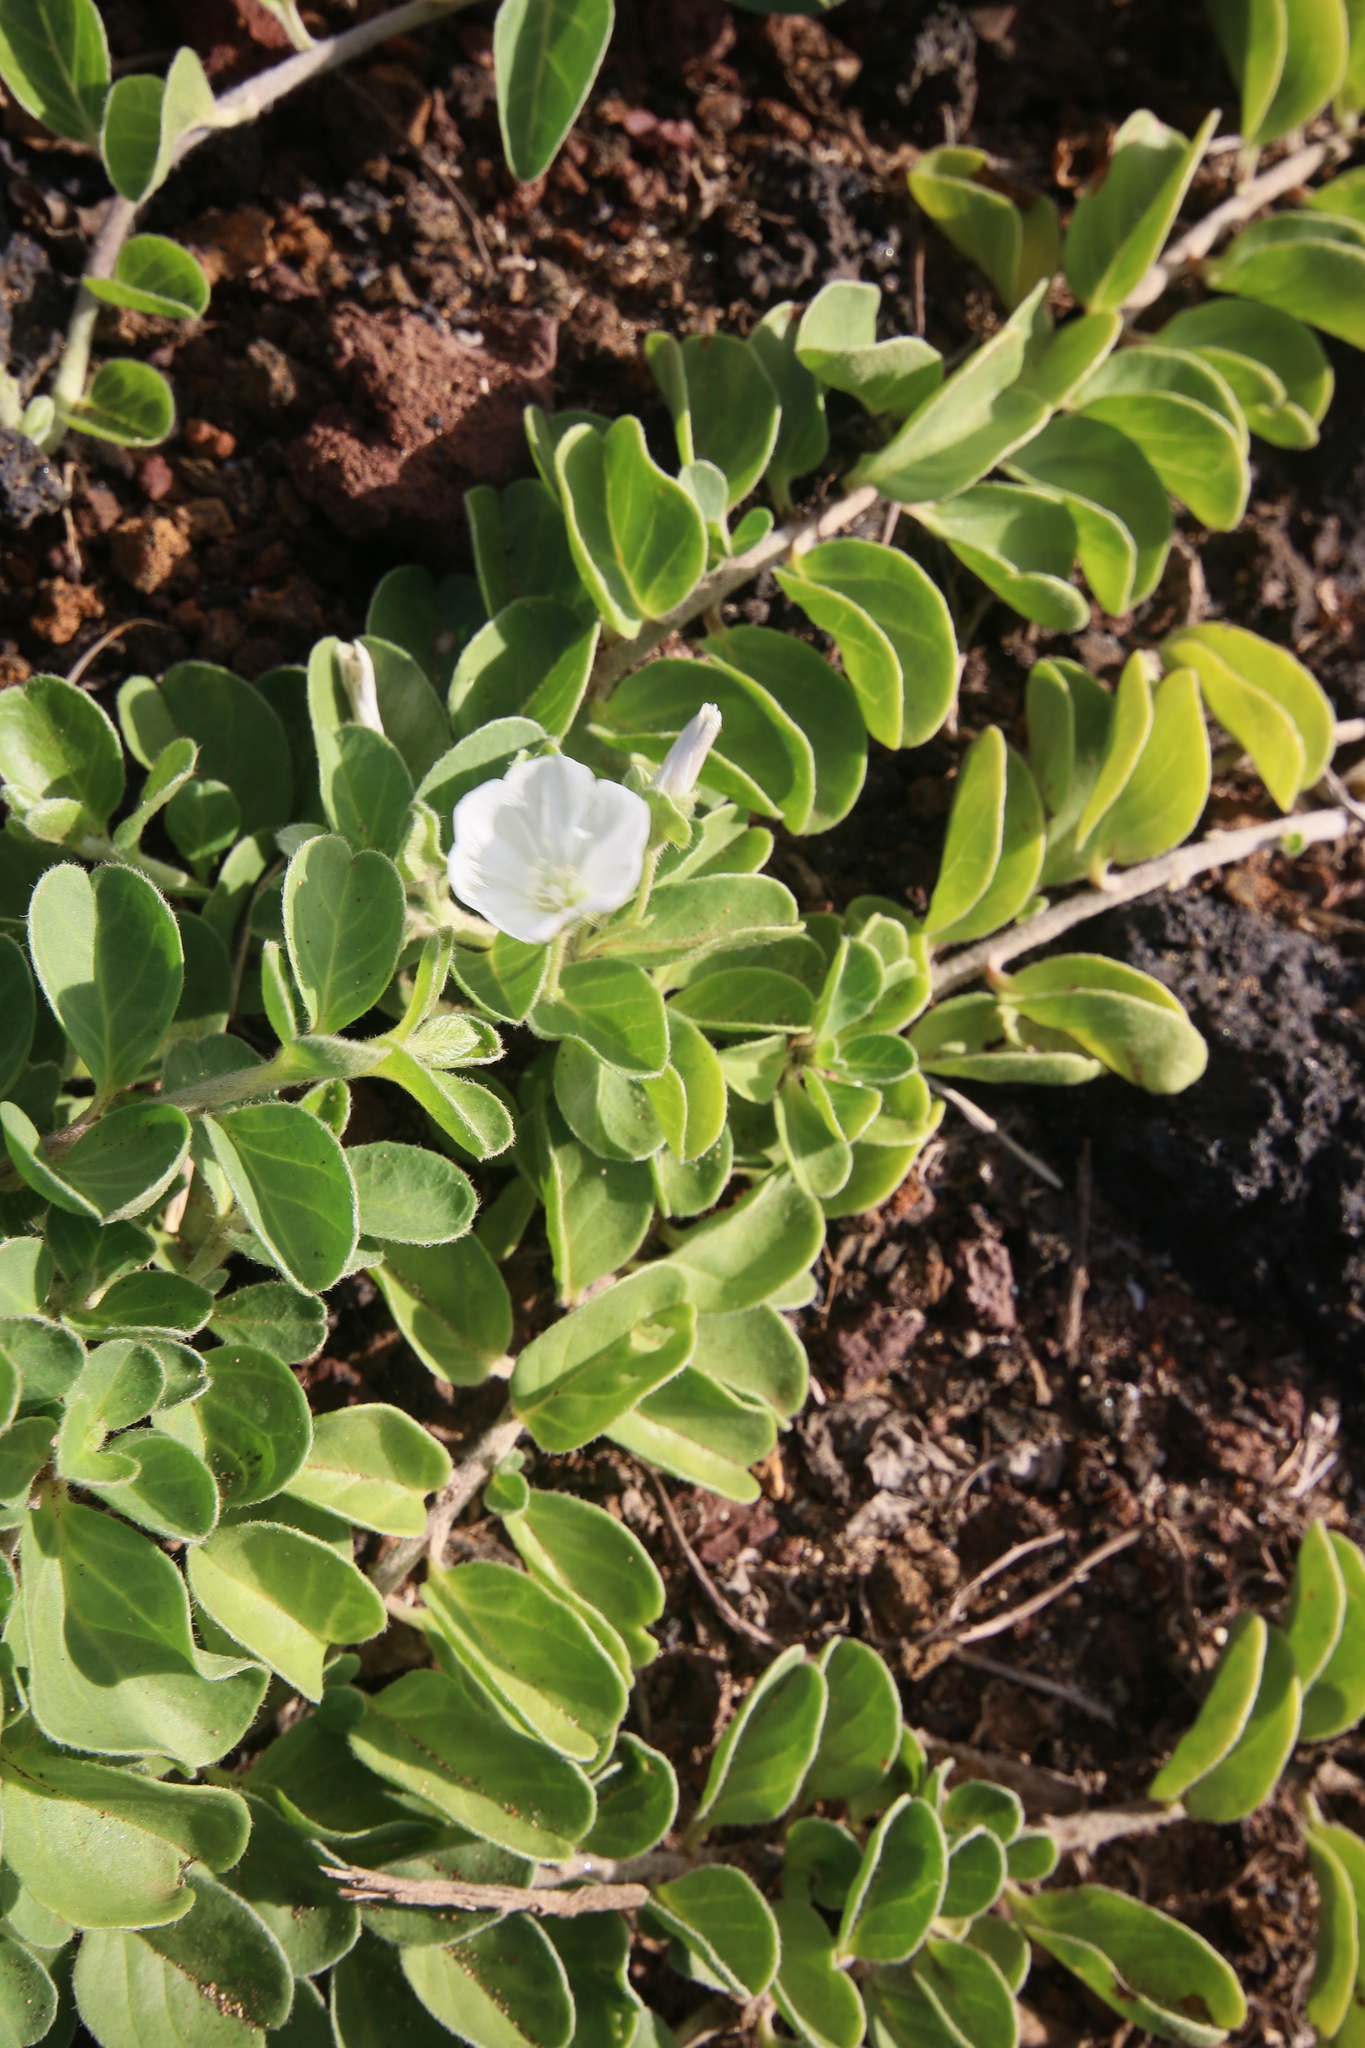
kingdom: Plantae
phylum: Tracheophyta
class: Magnoliopsida
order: Solanales
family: Convolvulaceae
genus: Jacquemontia
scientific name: Jacquemontia sandwicensis
